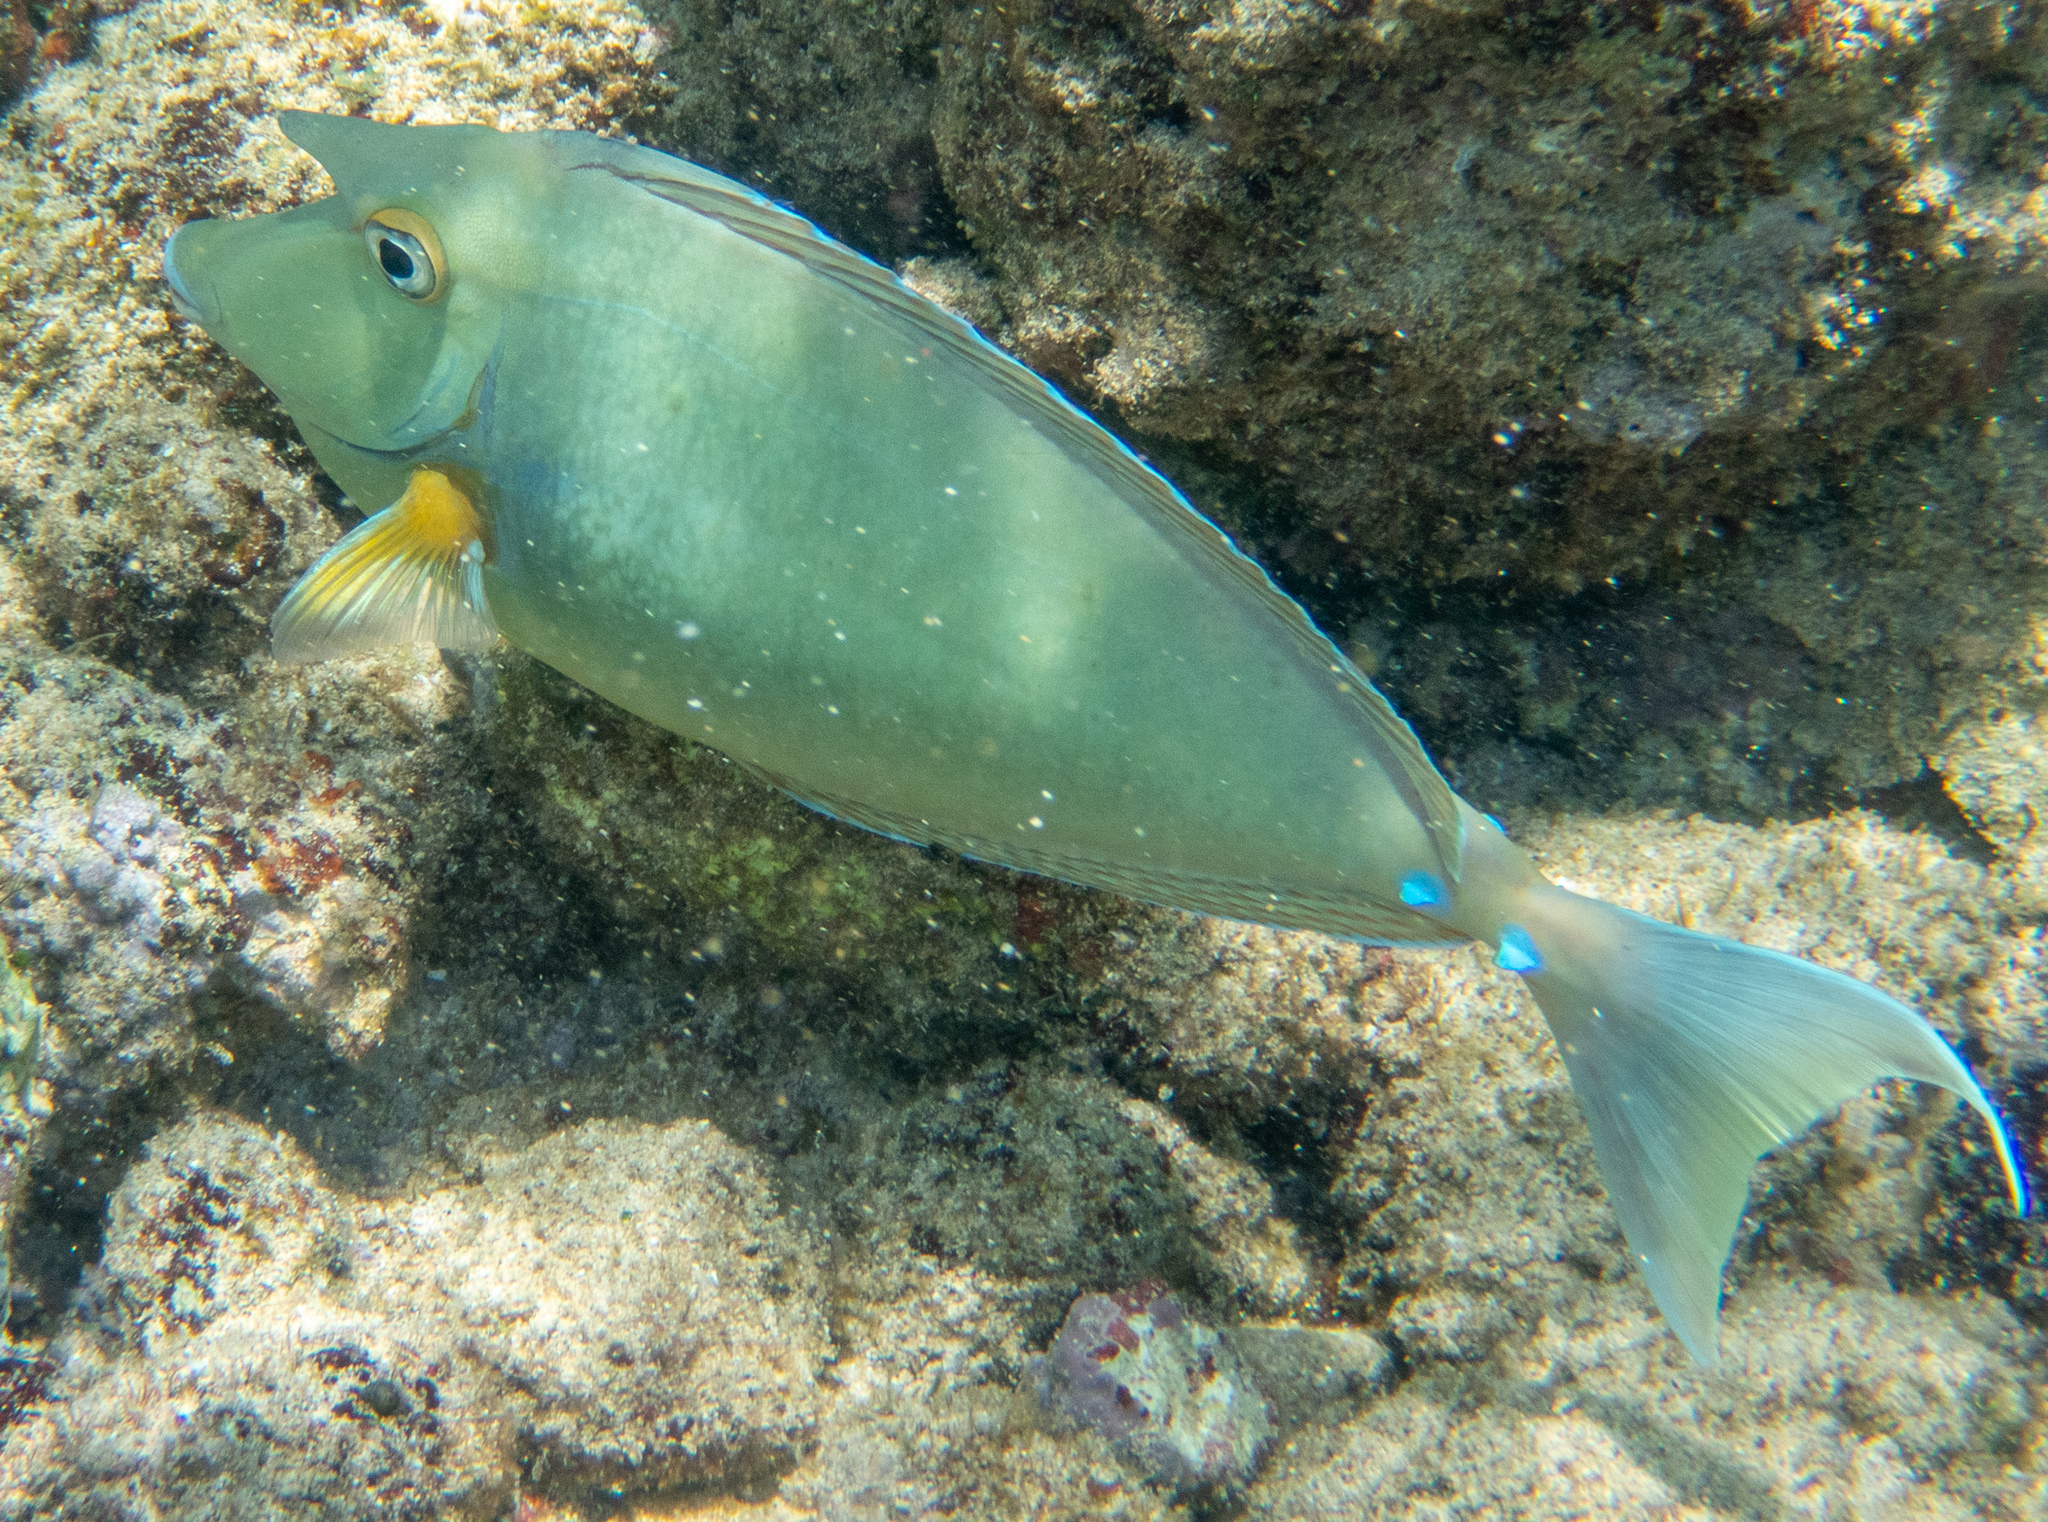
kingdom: Animalia
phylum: Chordata
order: Perciformes
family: Acanthuridae
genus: Naso
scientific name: Naso unicornis
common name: Bluespine unicornfish
